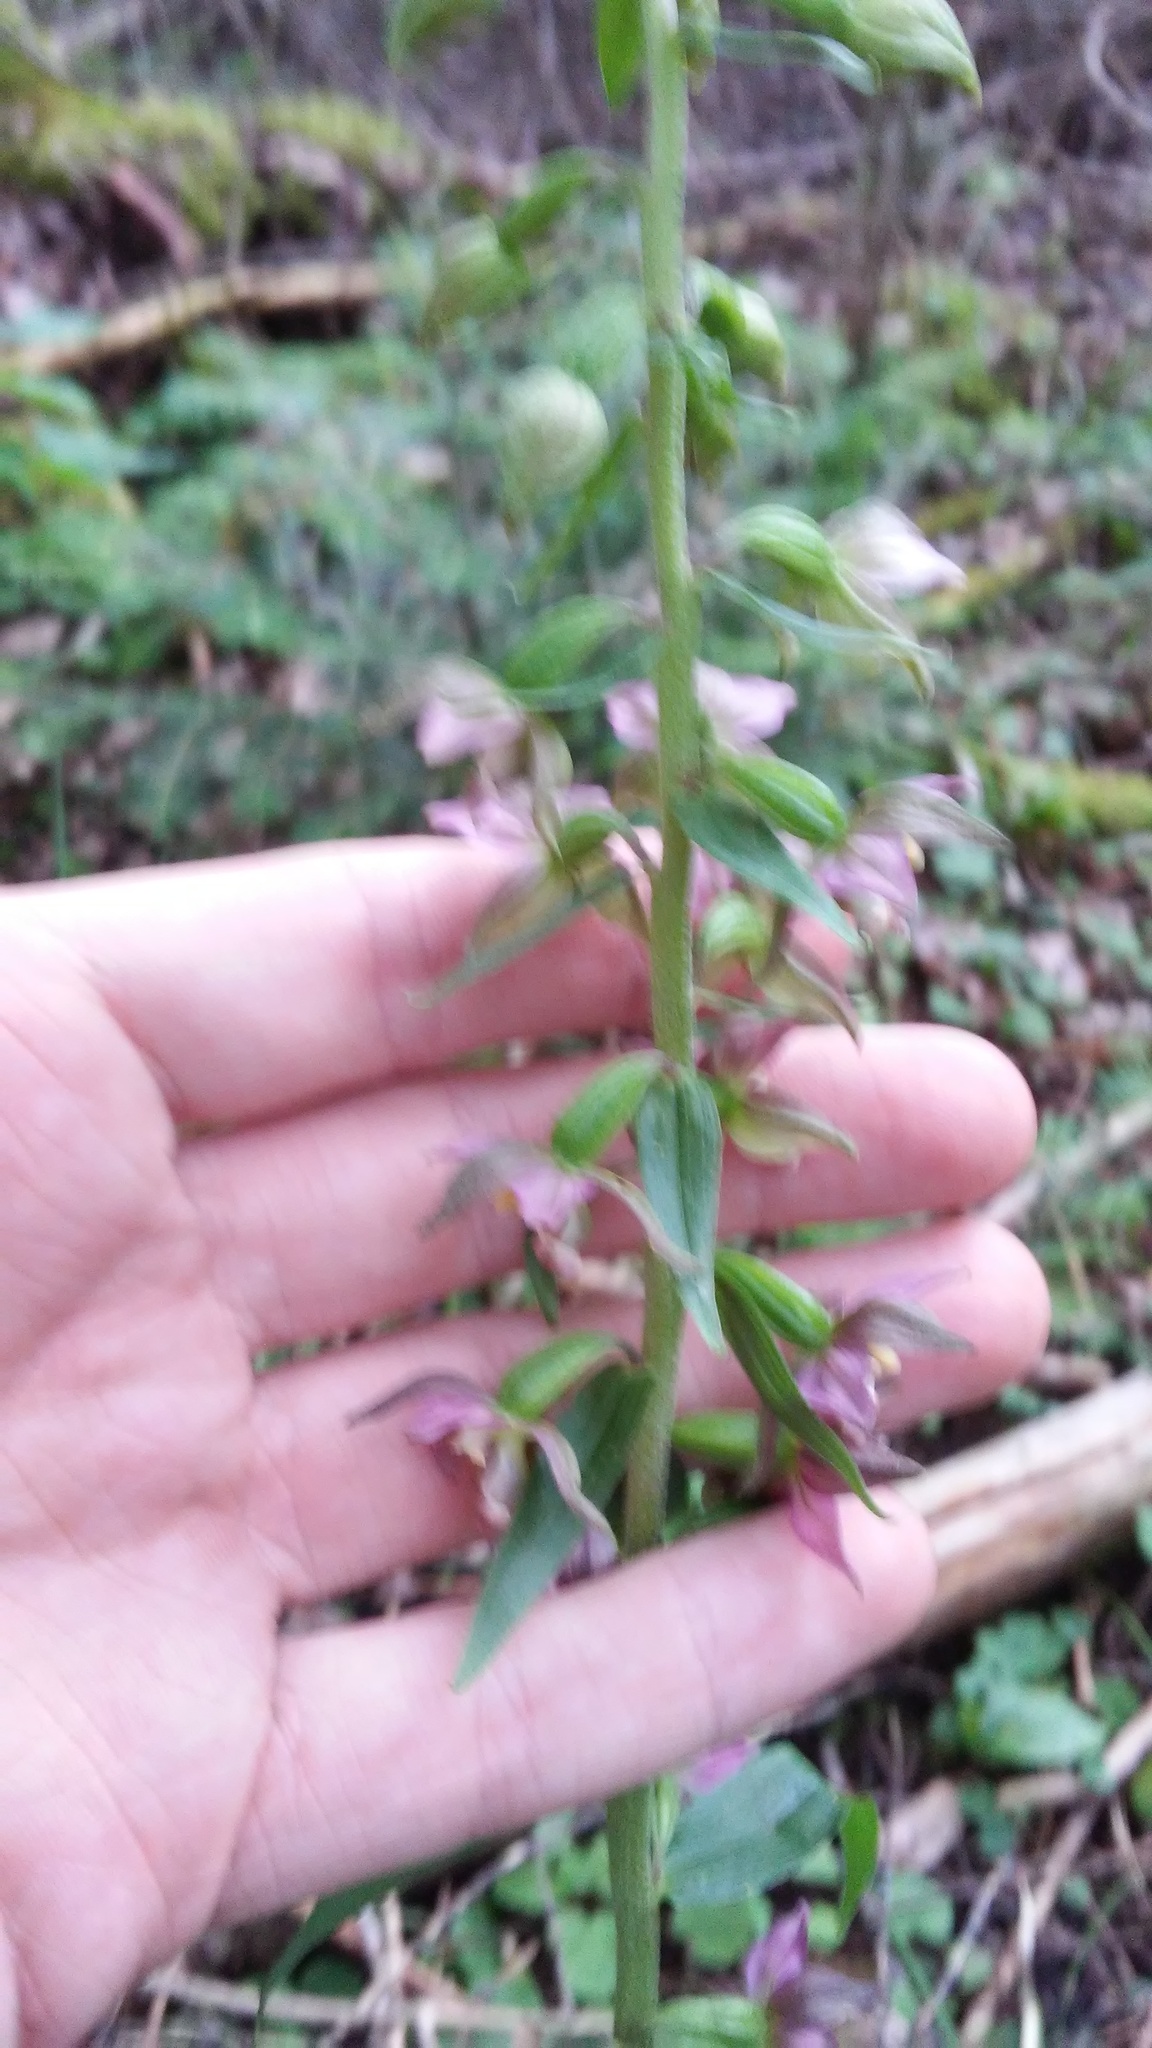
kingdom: Plantae
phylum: Tracheophyta
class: Liliopsida
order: Asparagales
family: Orchidaceae
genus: Epipactis
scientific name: Epipactis helleborine
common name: Broad-leaved helleborine
